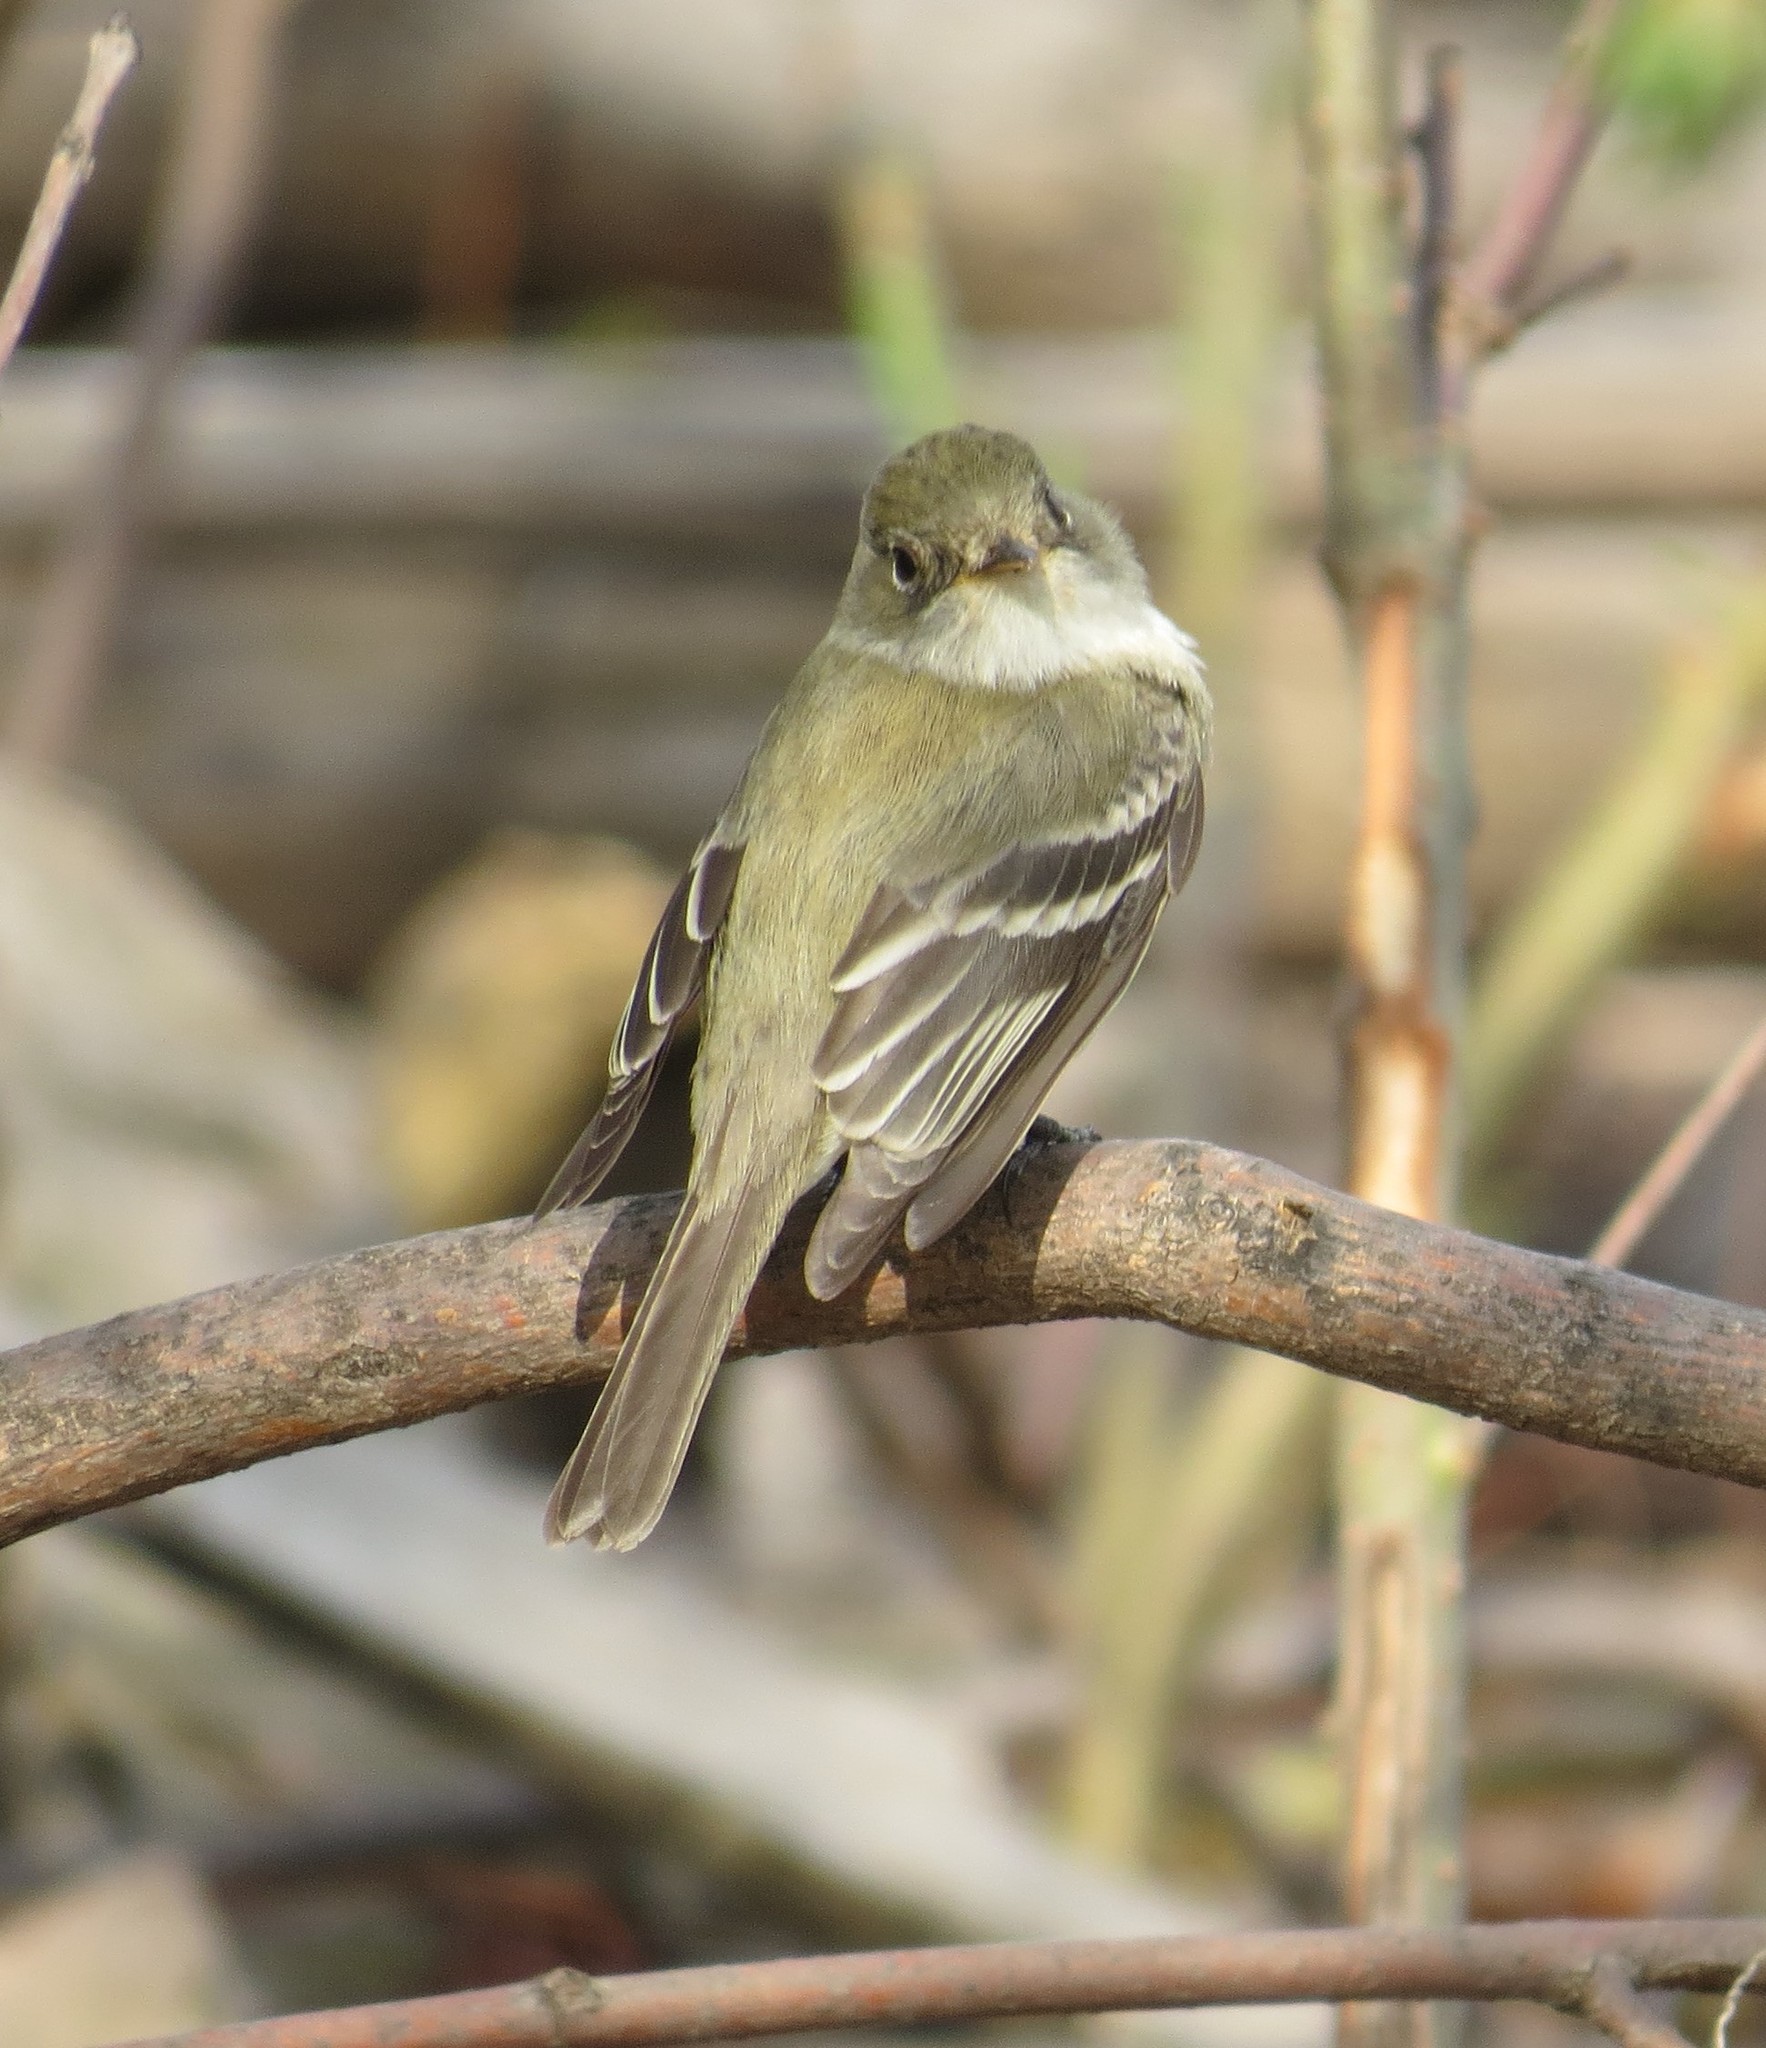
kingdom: Animalia
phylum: Chordata
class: Aves
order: Passeriformes
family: Tyrannidae
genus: Empidonax
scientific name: Empidonax minimus
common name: Least flycatcher
